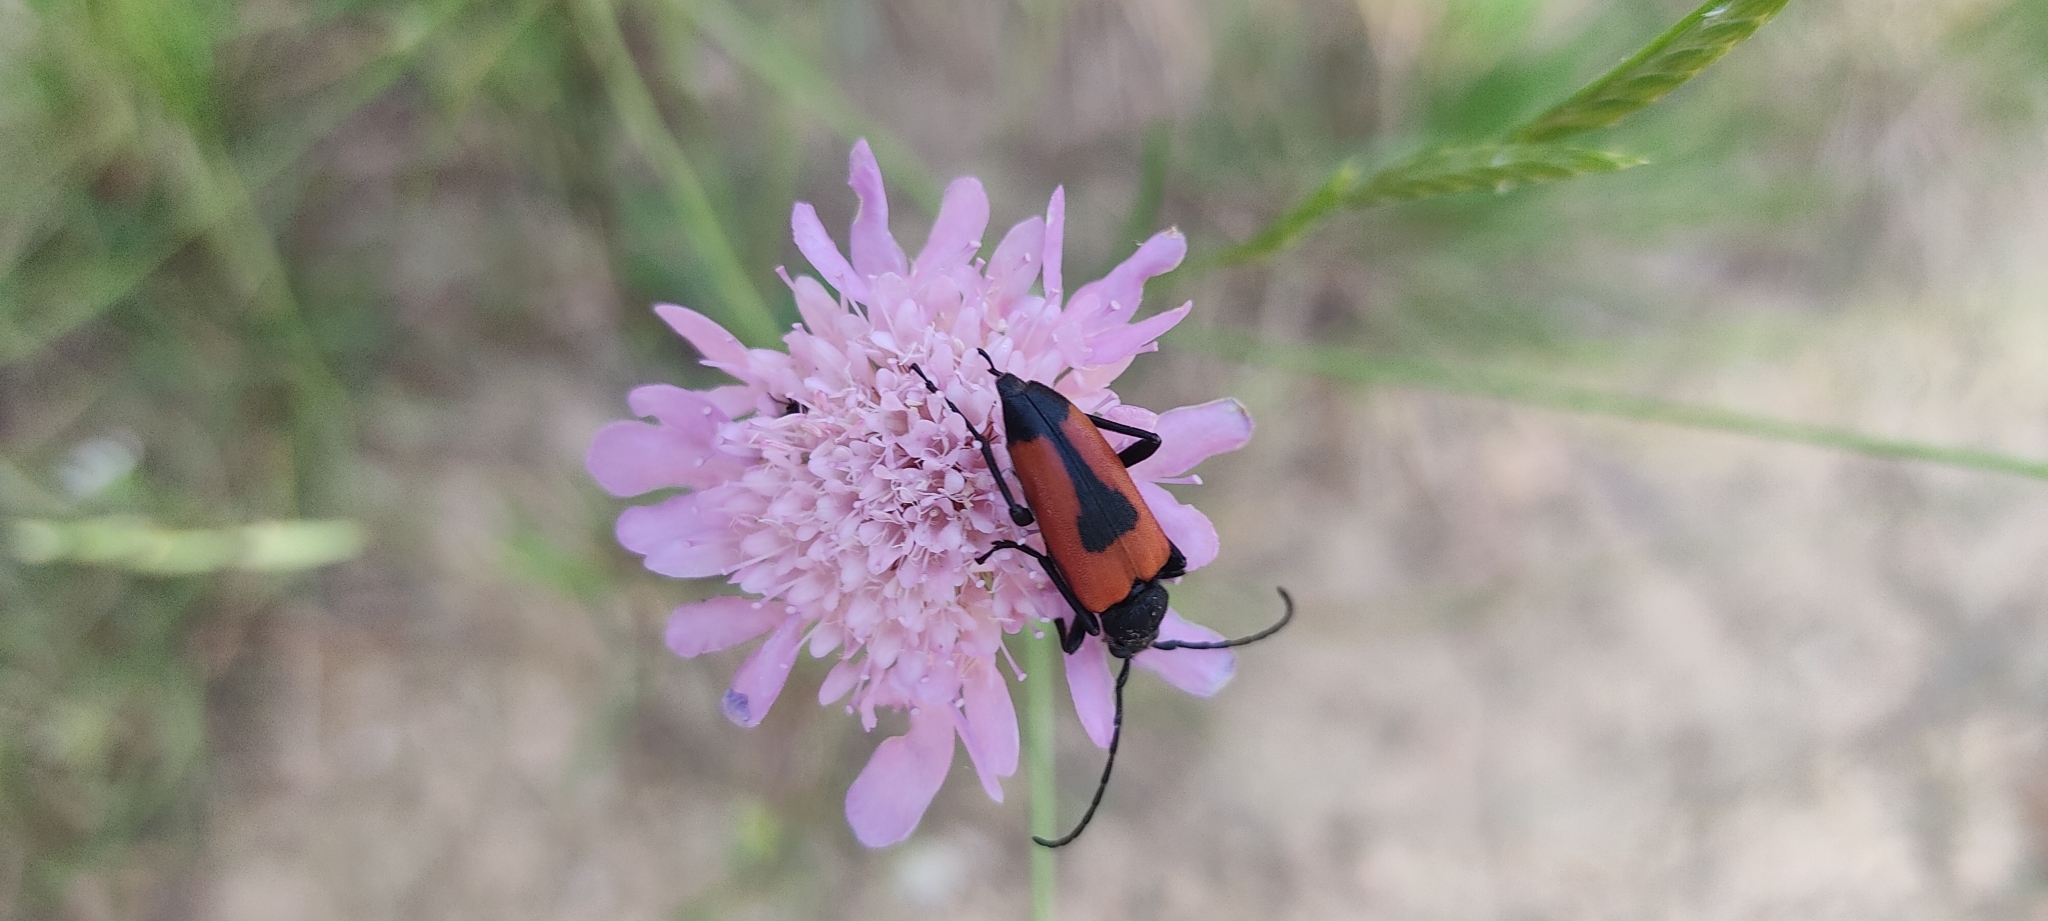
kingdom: Animalia
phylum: Arthropoda
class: Insecta
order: Coleoptera
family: Cerambycidae
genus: Stictoleptura
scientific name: Stictoleptura cordigera
